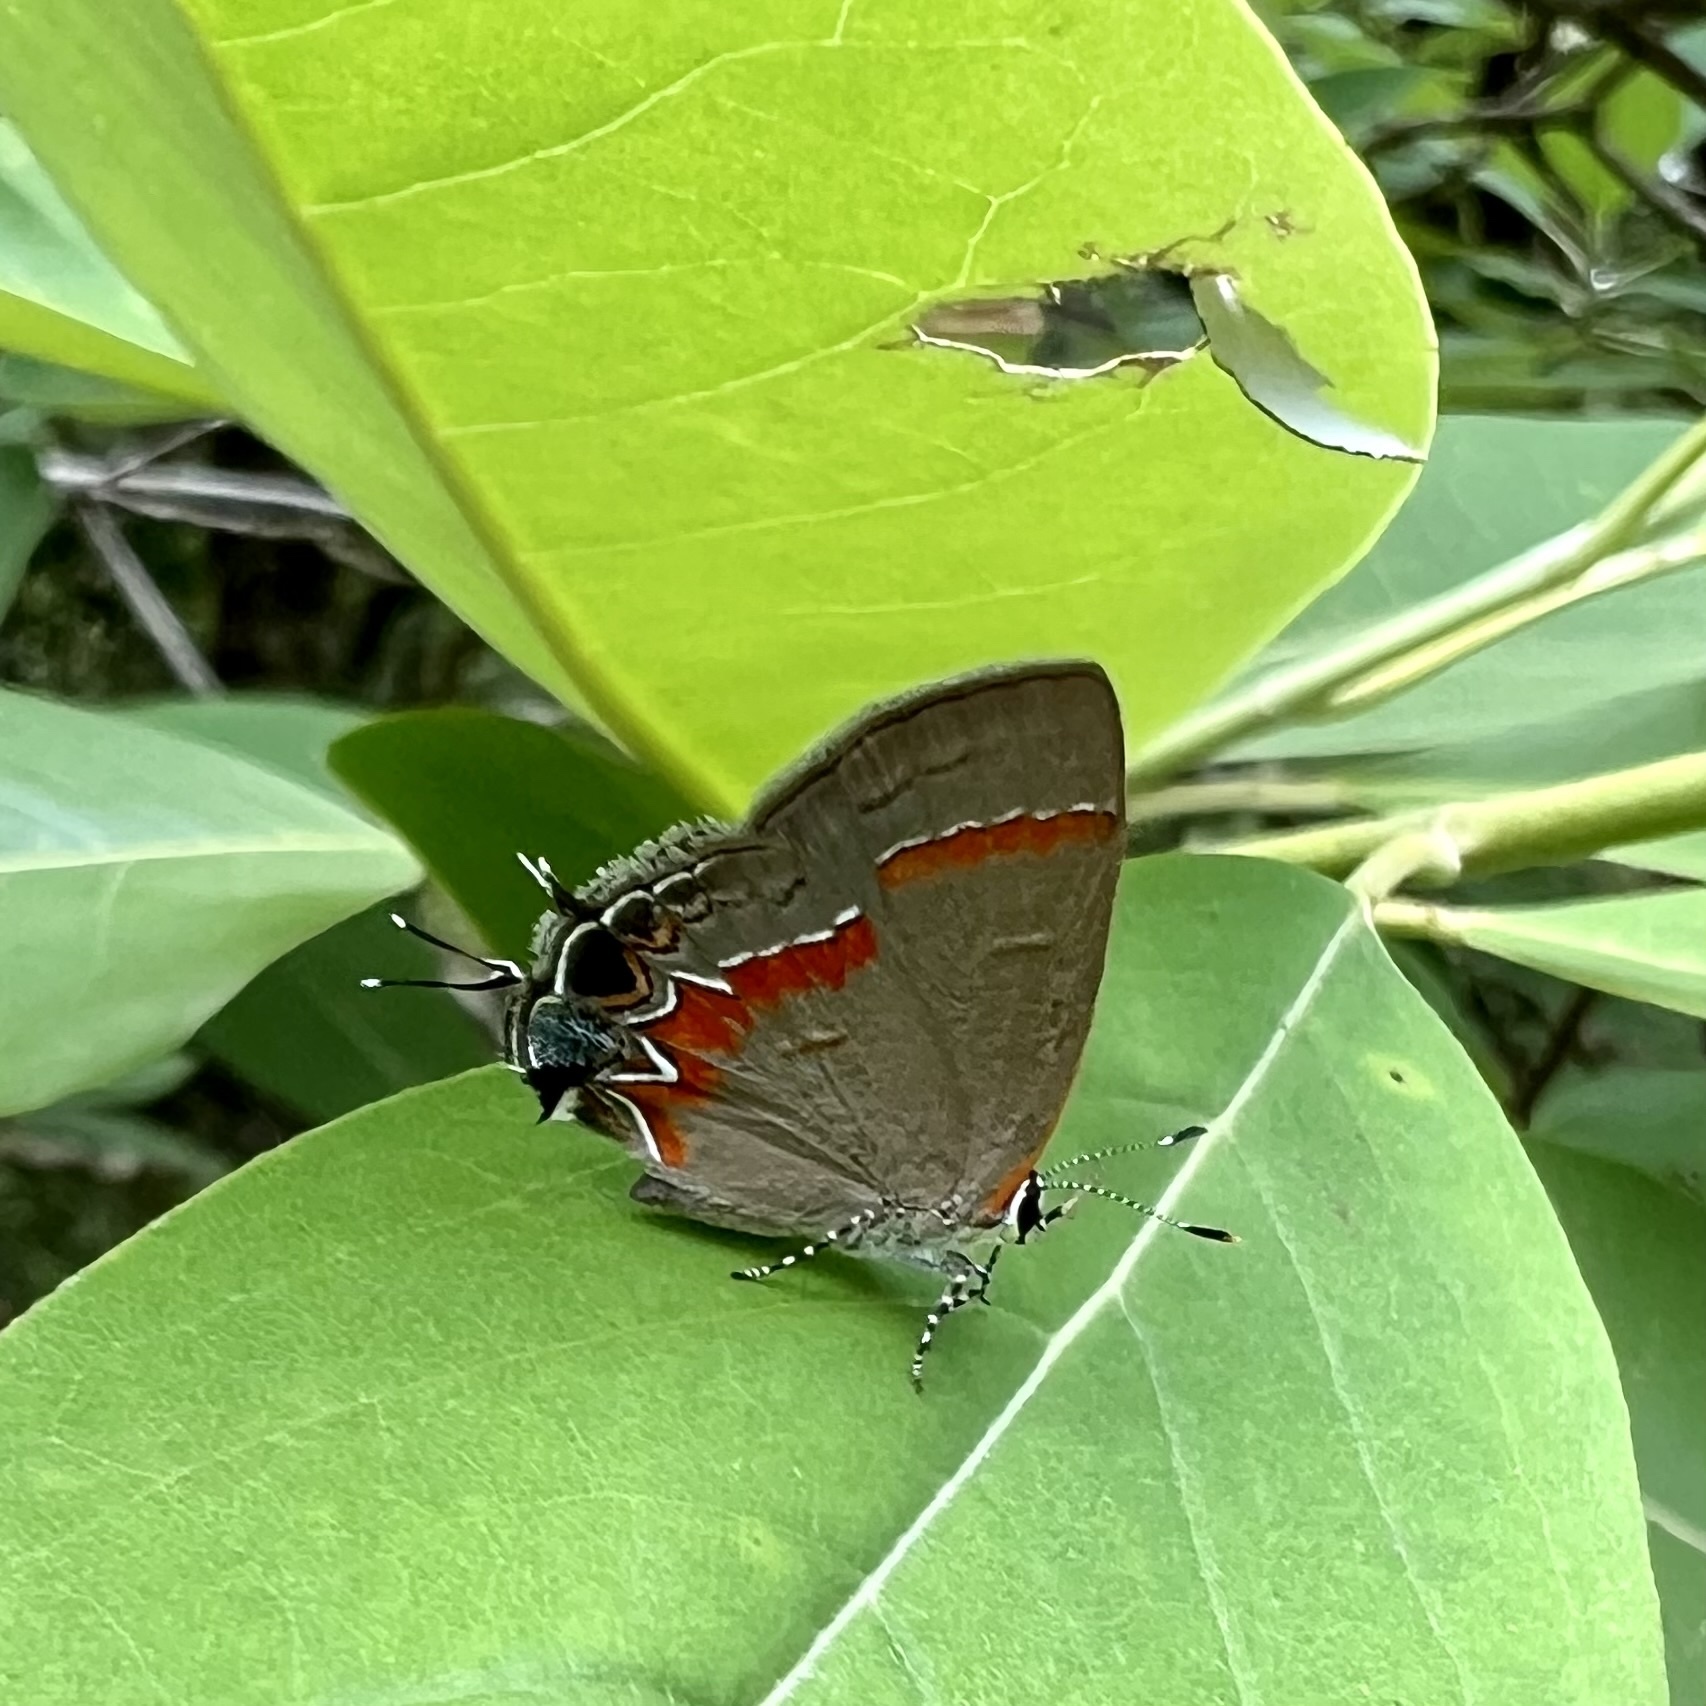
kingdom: Animalia
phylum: Arthropoda
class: Insecta
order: Lepidoptera
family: Lycaenidae
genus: Calycopis
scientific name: Calycopis cecrops
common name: Red-banded hairstreak
